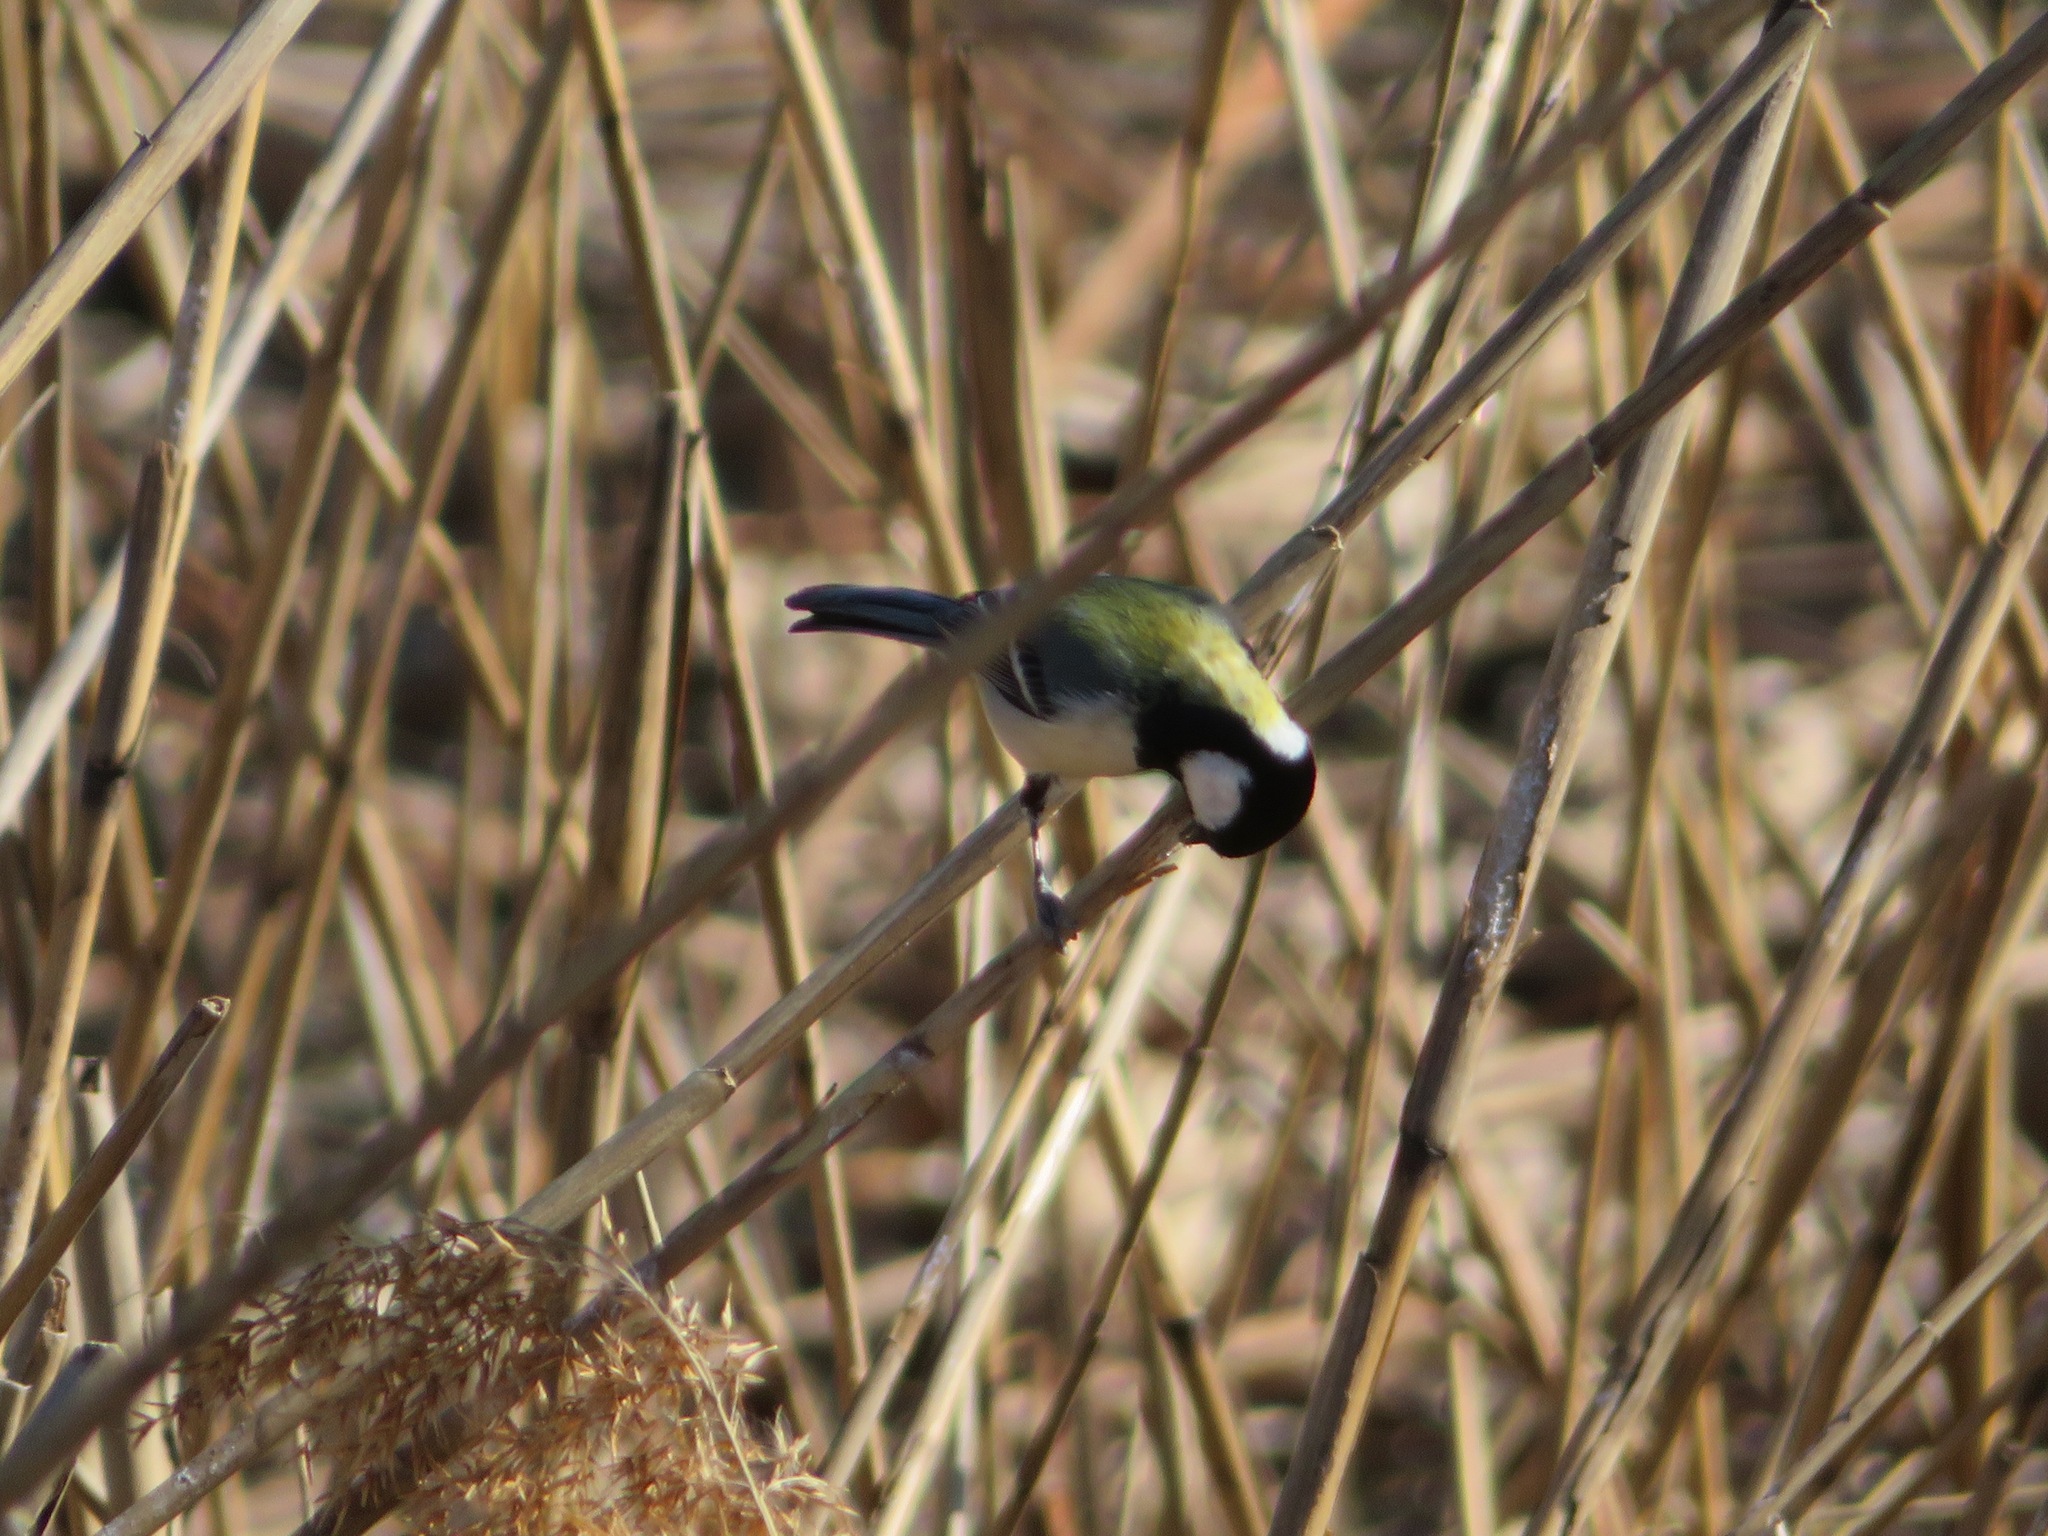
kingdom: Animalia
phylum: Chordata
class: Aves
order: Passeriformes
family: Paridae
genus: Parus
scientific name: Parus minor
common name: Japanese tit
